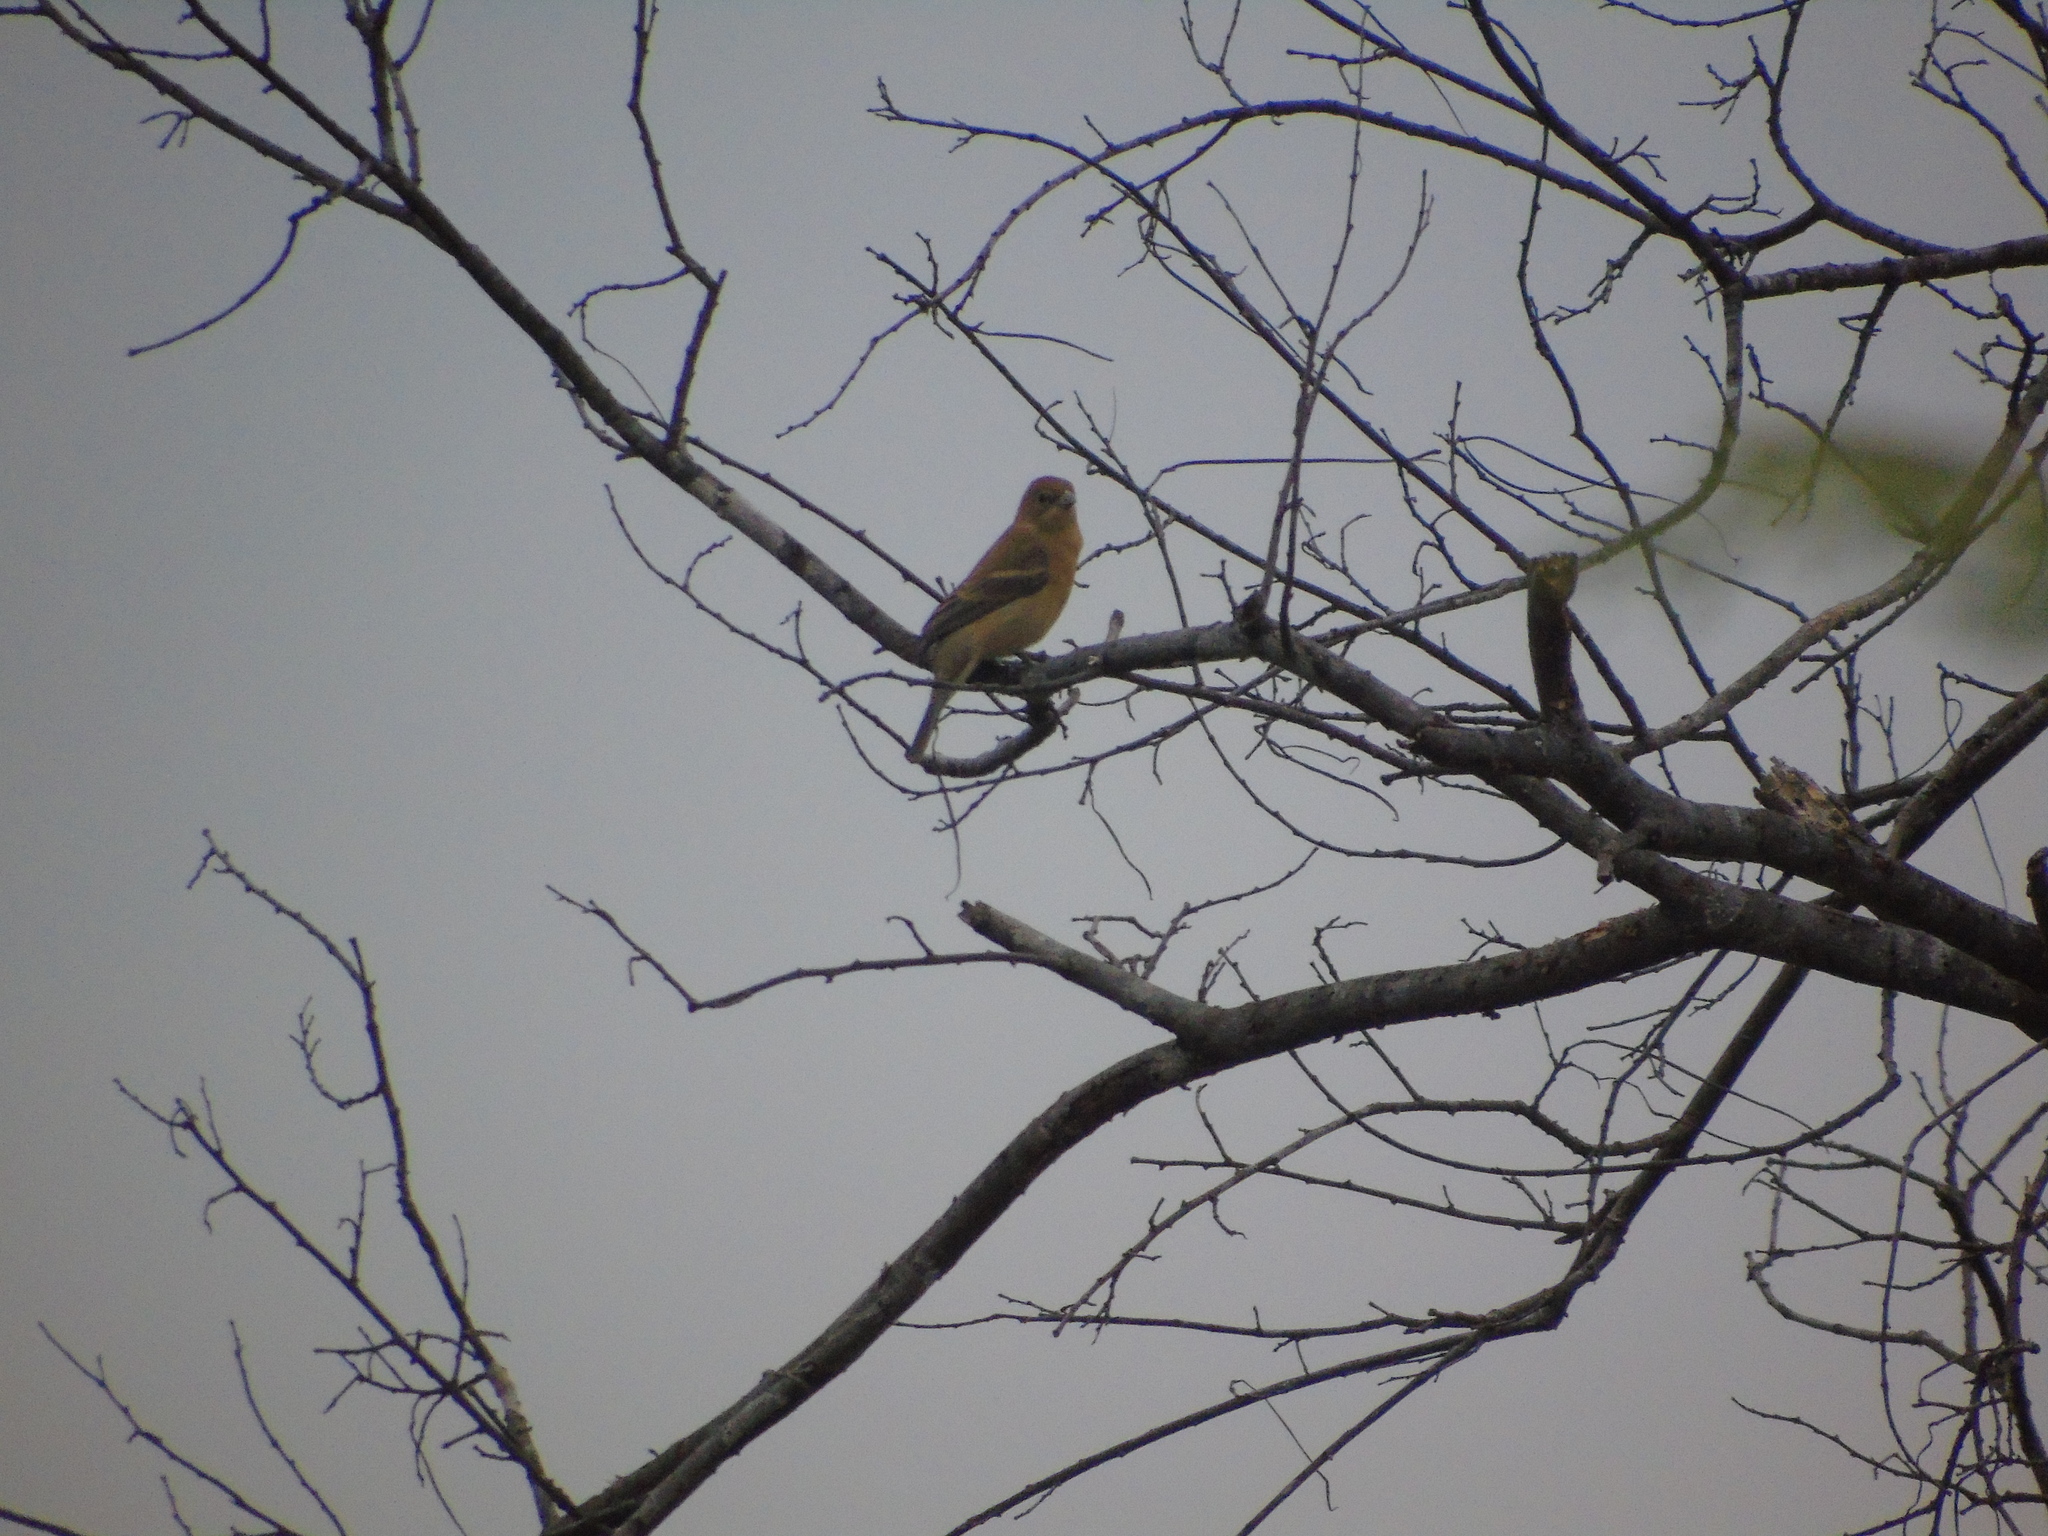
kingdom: Animalia
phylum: Chordata
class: Aves
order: Passeriformes
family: Cardinalidae
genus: Passerina
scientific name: Passerina amoena
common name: Lazuli bunting
